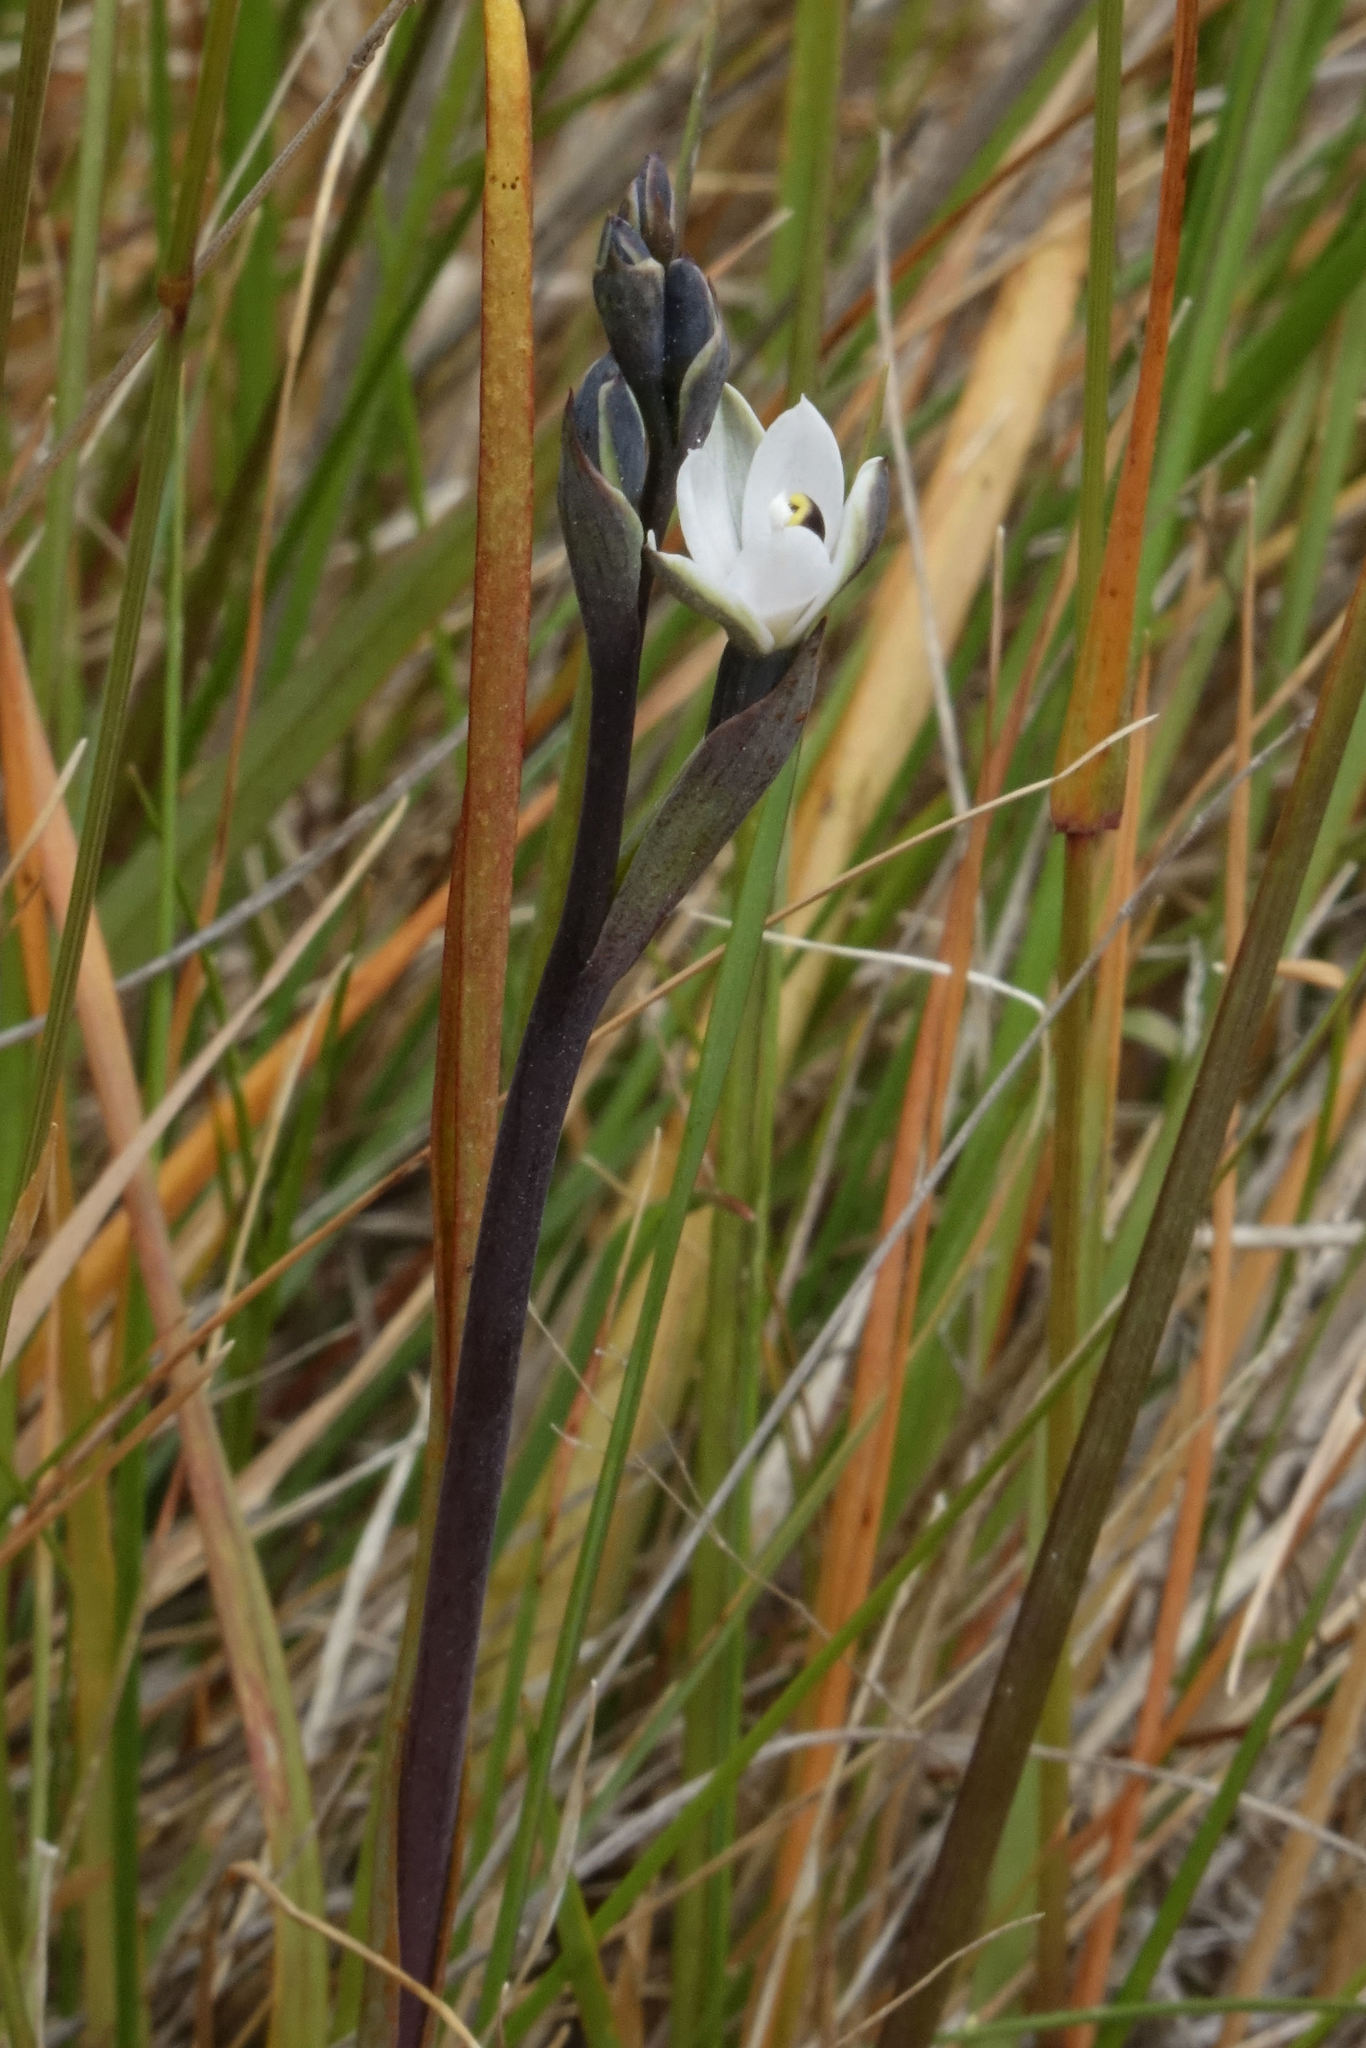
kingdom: Plantae
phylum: Tracheophyta
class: Liliopsida
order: Asparagales
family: Orchidaceae
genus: Thelymitra
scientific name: Thelymitra longifolia
